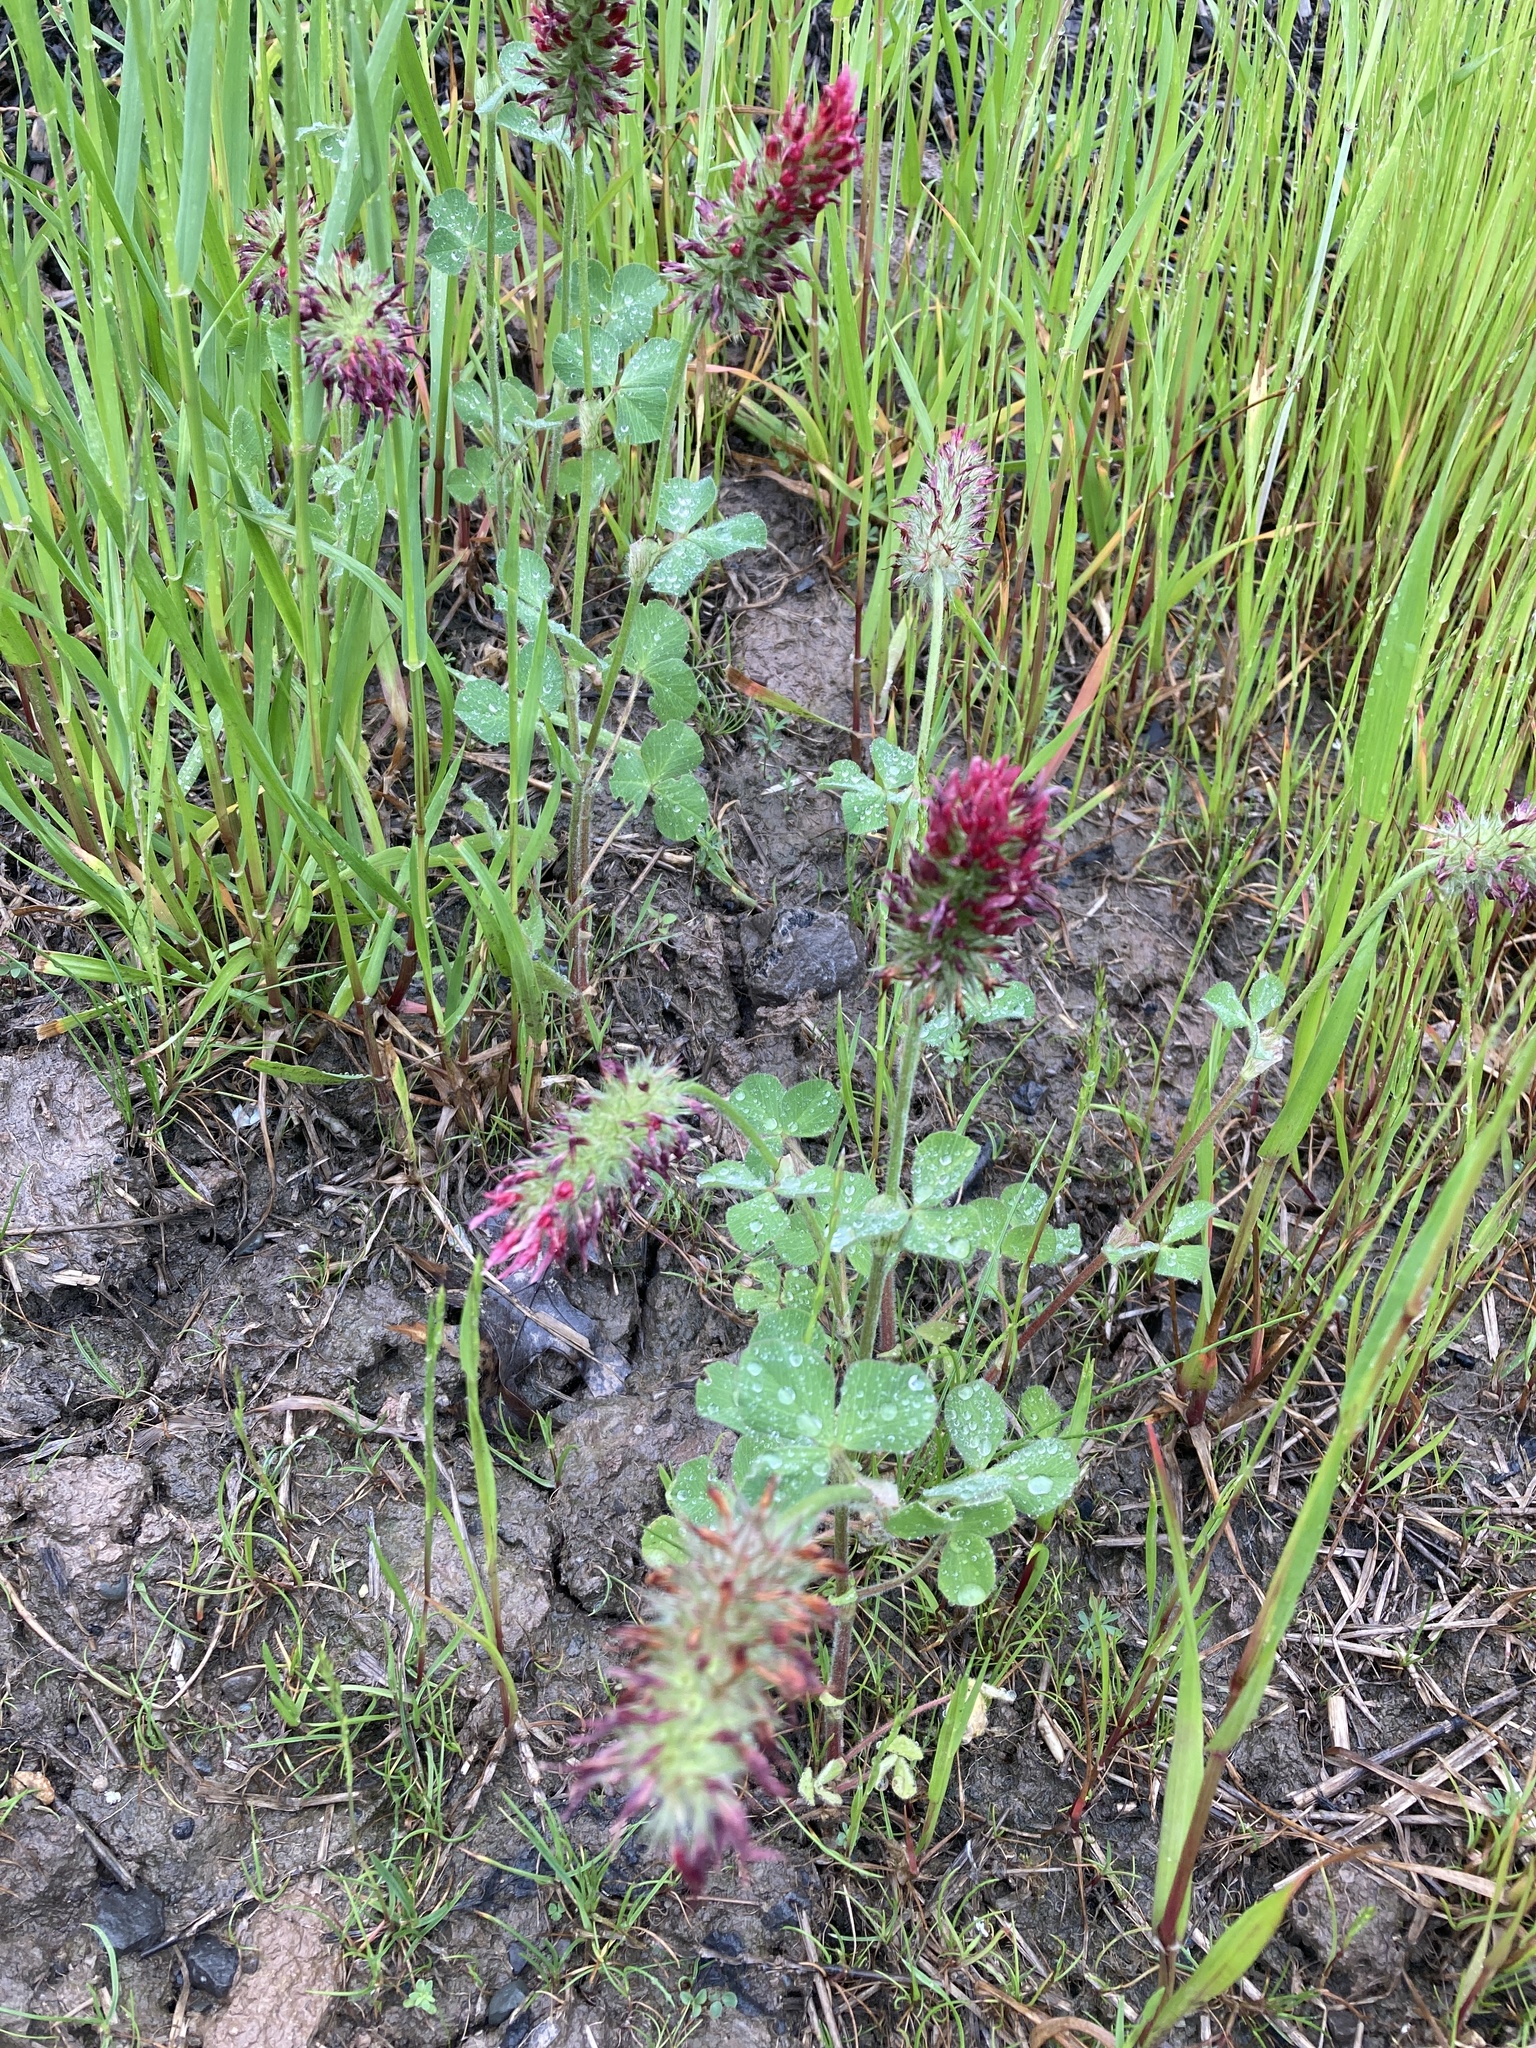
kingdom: Plantae
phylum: Tracheophyta
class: Magnoliopsida
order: Fabales
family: Fabaceae
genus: Trifolium
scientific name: Trifolium incarnatum
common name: Crimson clover
